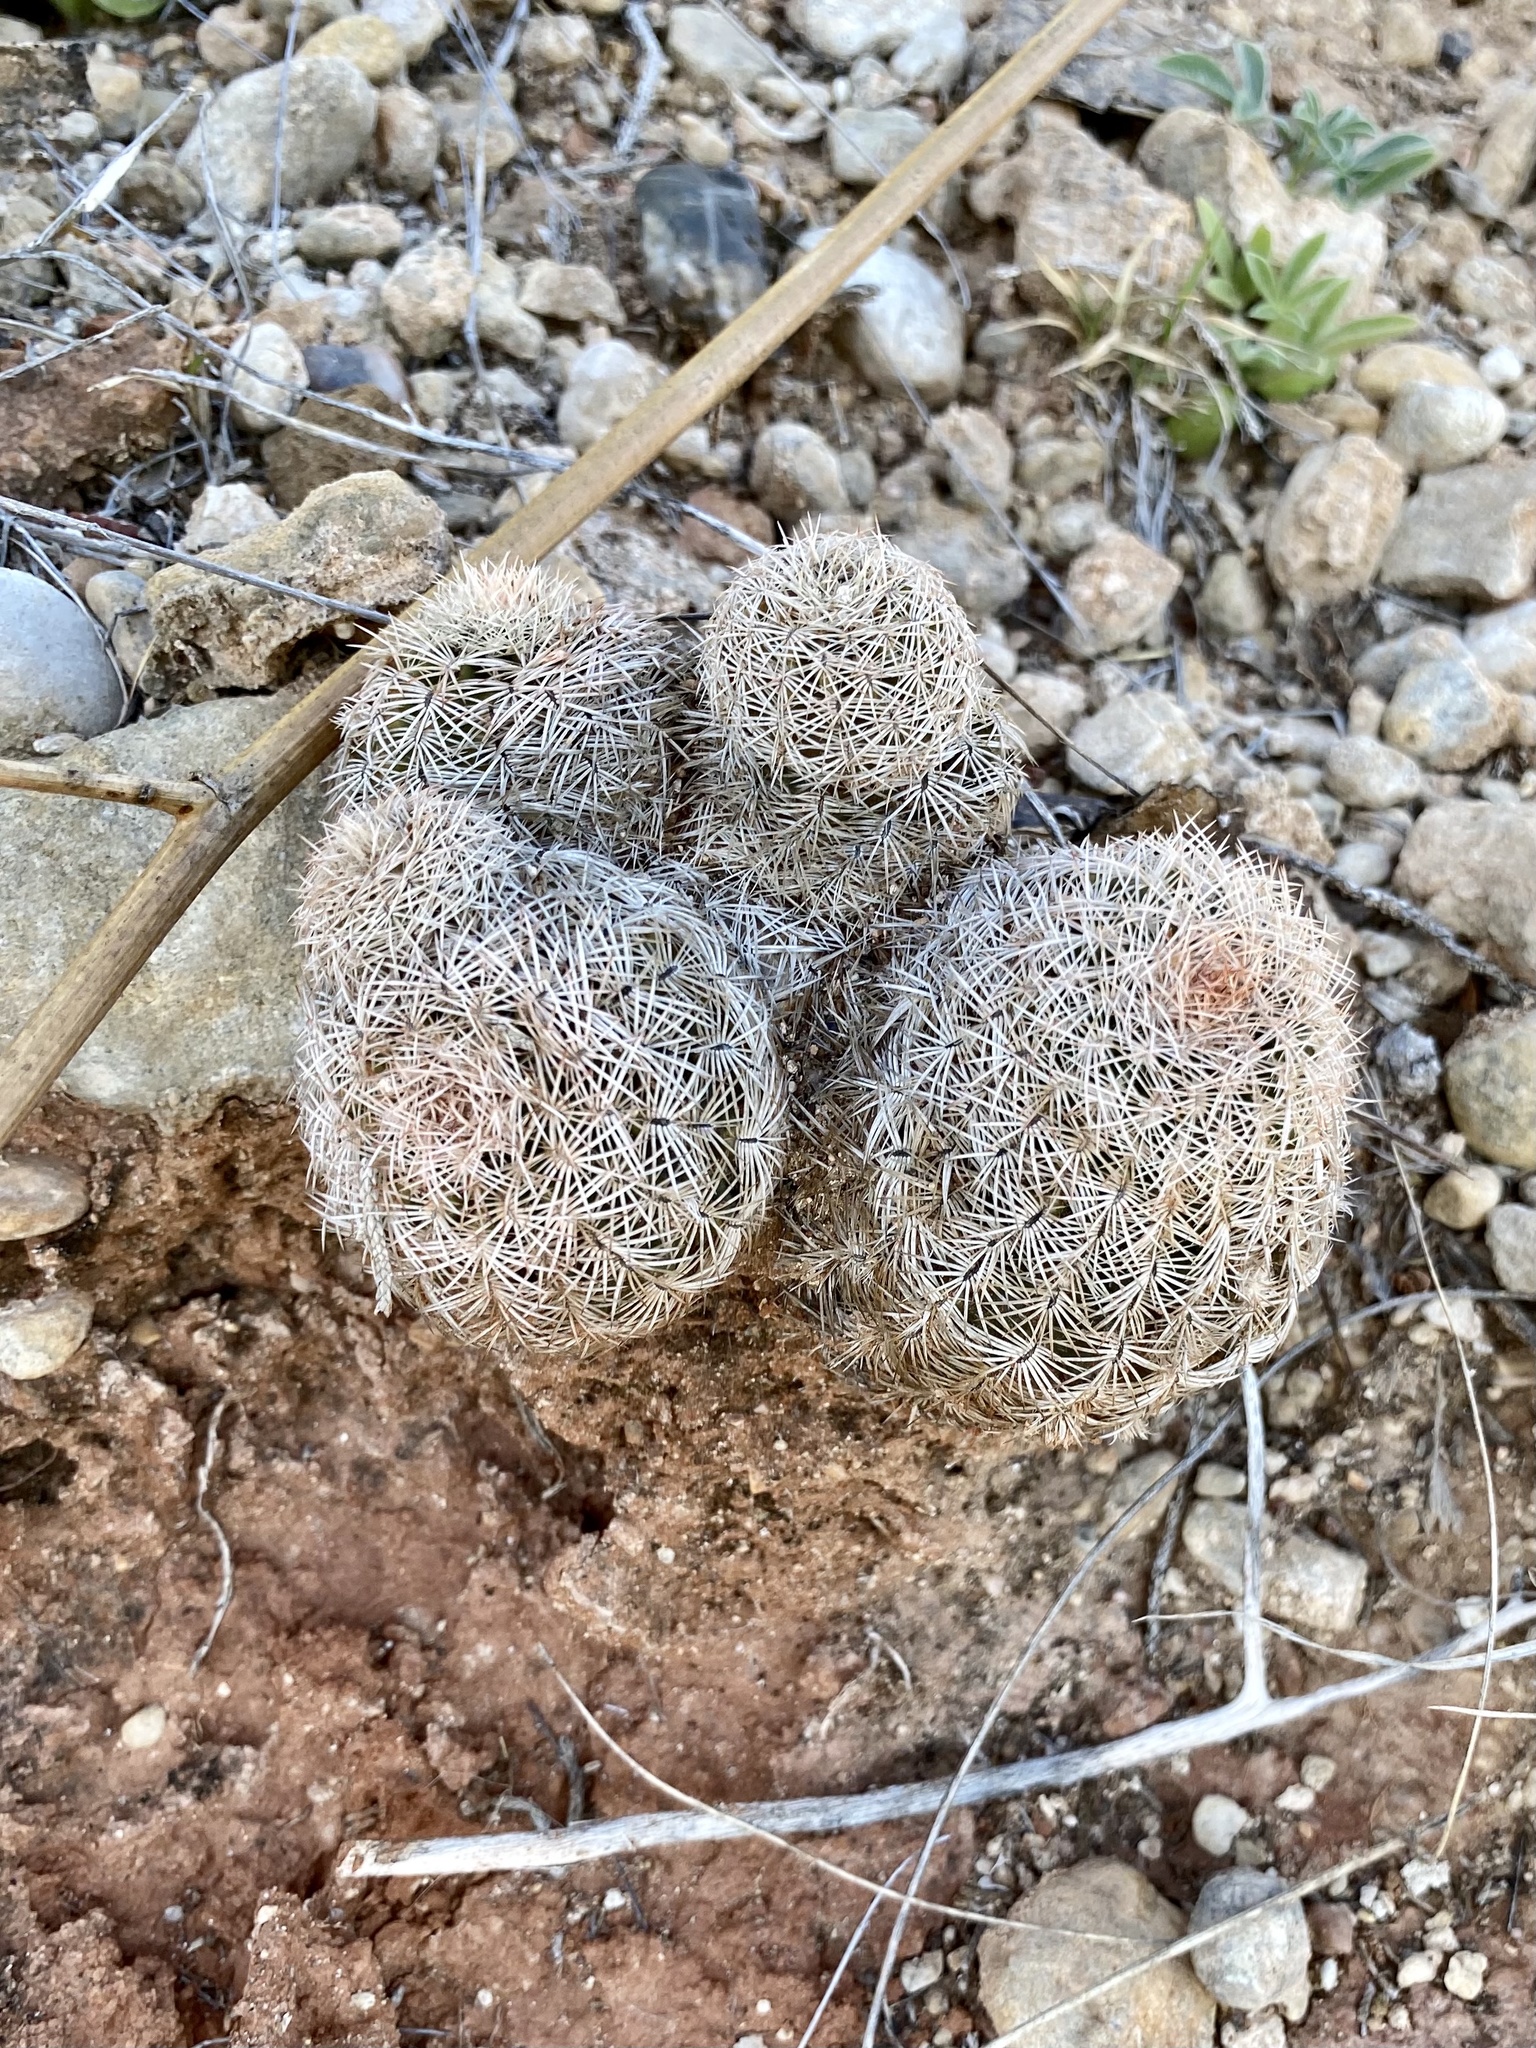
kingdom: Plantae
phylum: Tracheophyta
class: Magnoliopsida
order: Caryophyllales
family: Cactaceae
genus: Echinocereus
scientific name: Echinocereus reichenbachii
